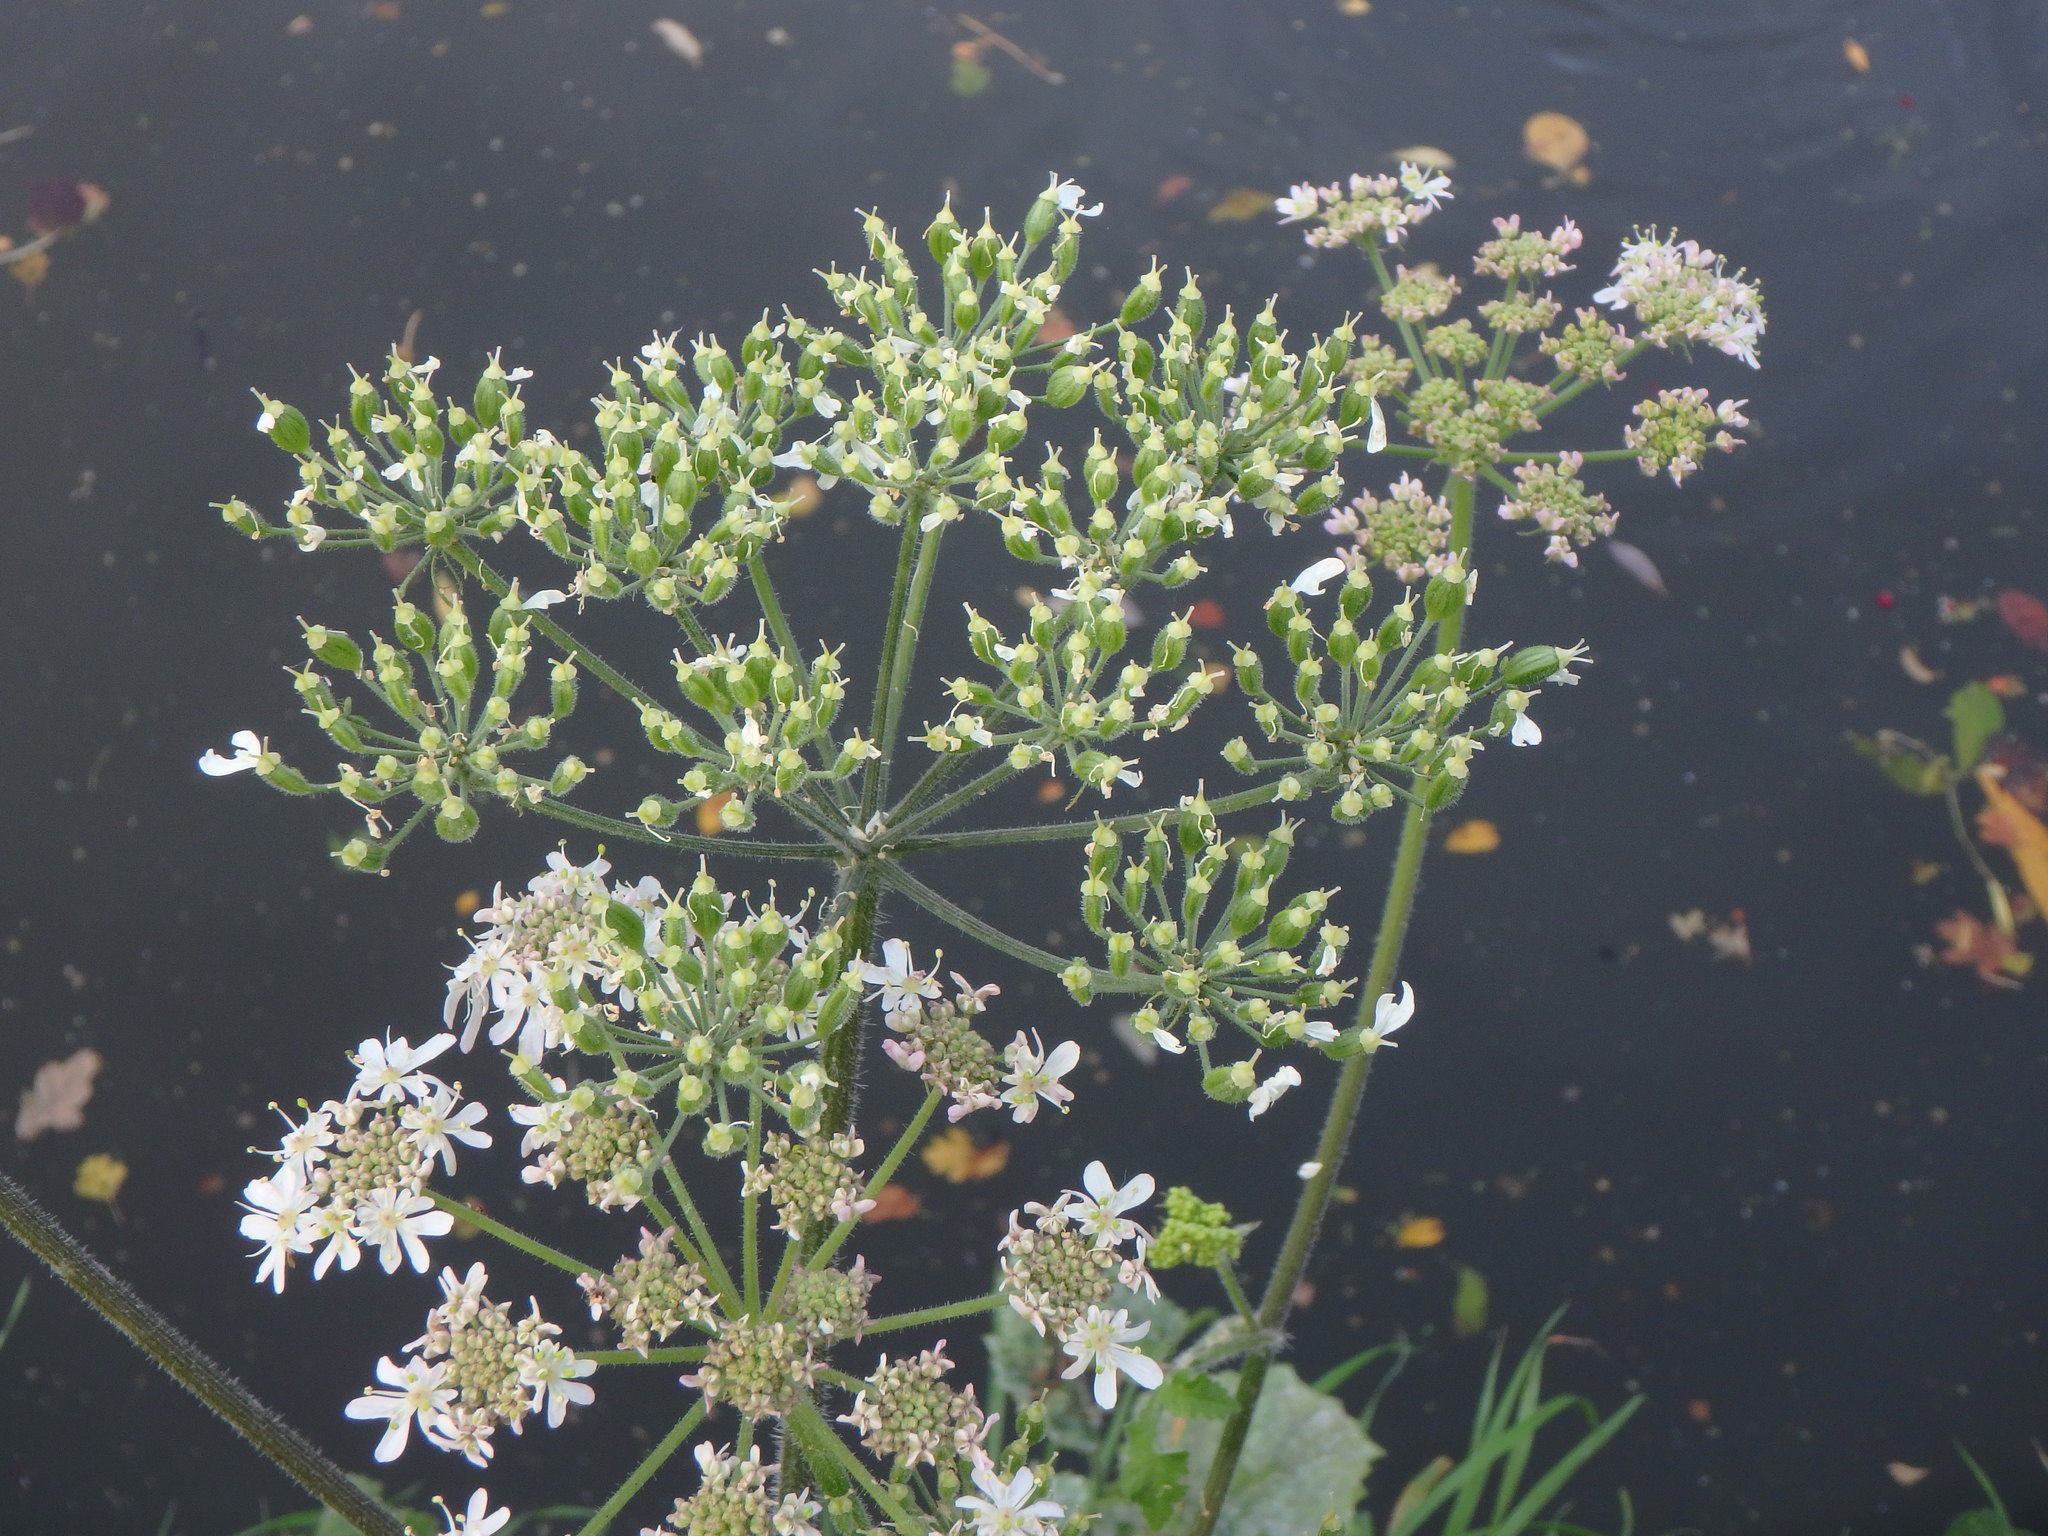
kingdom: Plantae
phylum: Tracheophyta
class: Magnoliopsida
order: Apiales
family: Apiaceae
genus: Heracleum
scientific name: Heracleum sphondylium
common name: Hogweed
